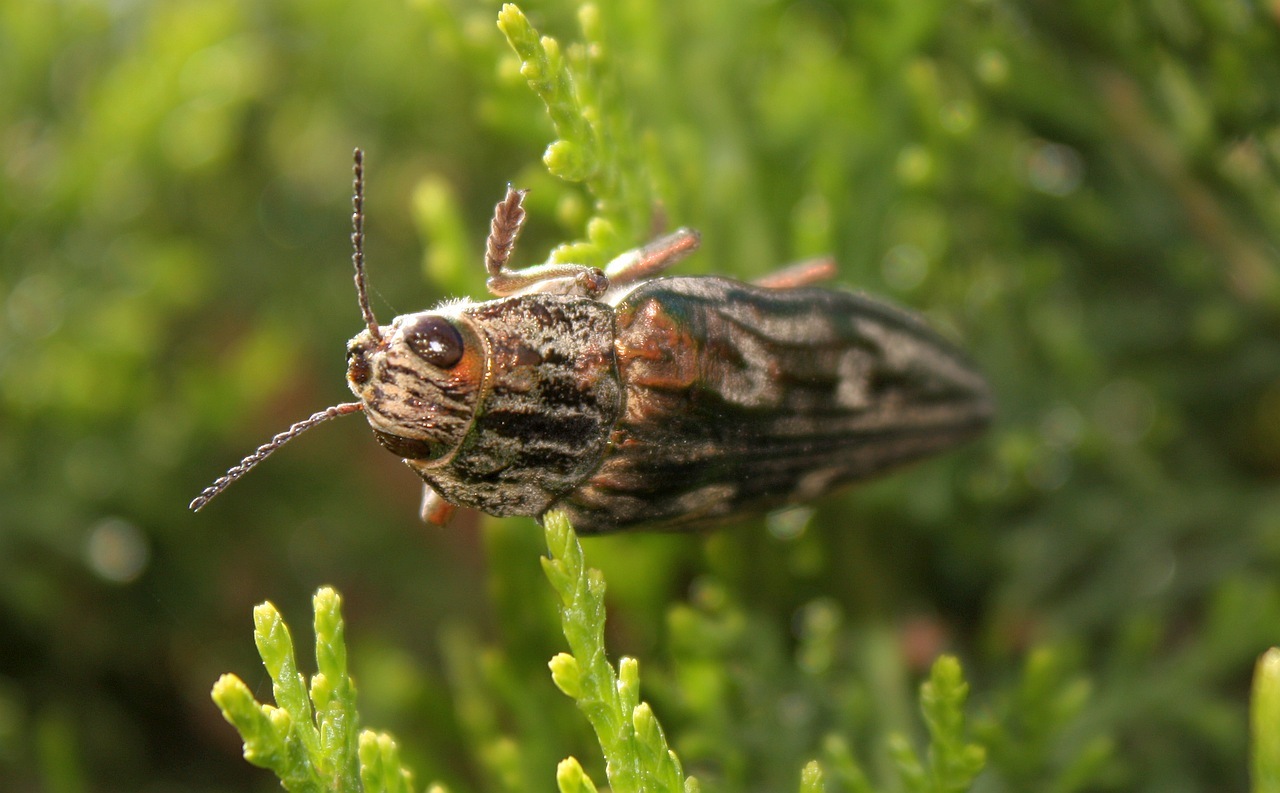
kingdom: Animalia
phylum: Arthropoda
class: Insecta
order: Coleoptera
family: Buprestidae
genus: Chalcophora
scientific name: Chalcophora massiliensis
